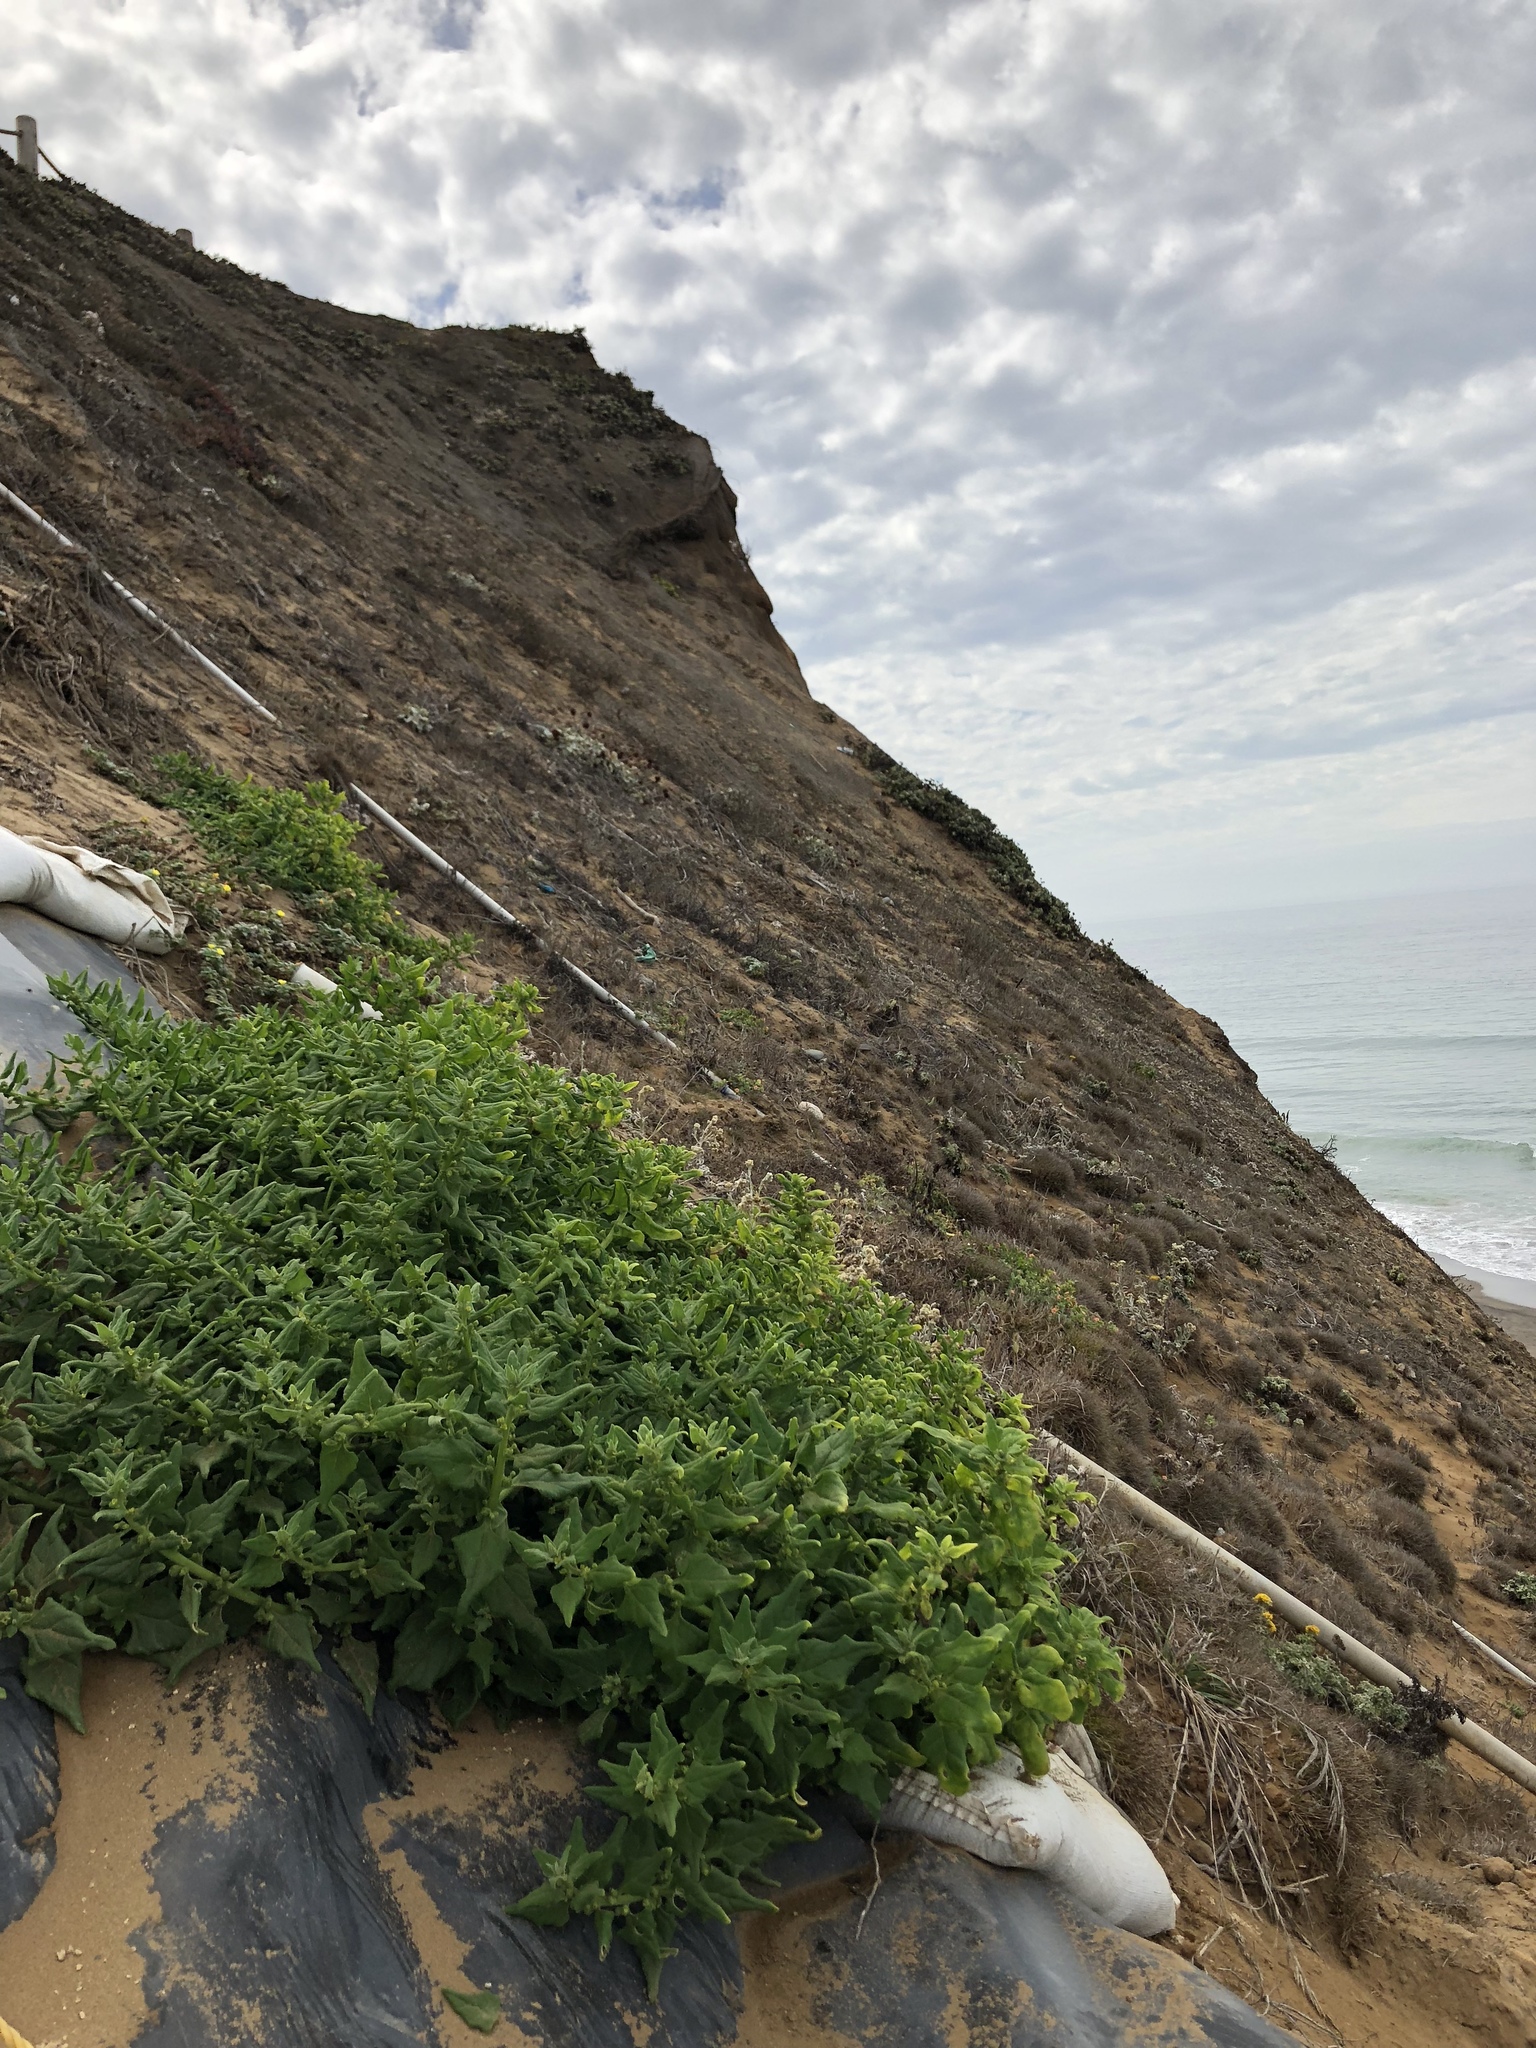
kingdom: Plantae
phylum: Tracheophyta
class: Magnoliopsida
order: Caryophyllales
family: Aizoaceae
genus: Tetragonia
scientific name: Tetragonia tetragonoides
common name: New zealand-spinach
